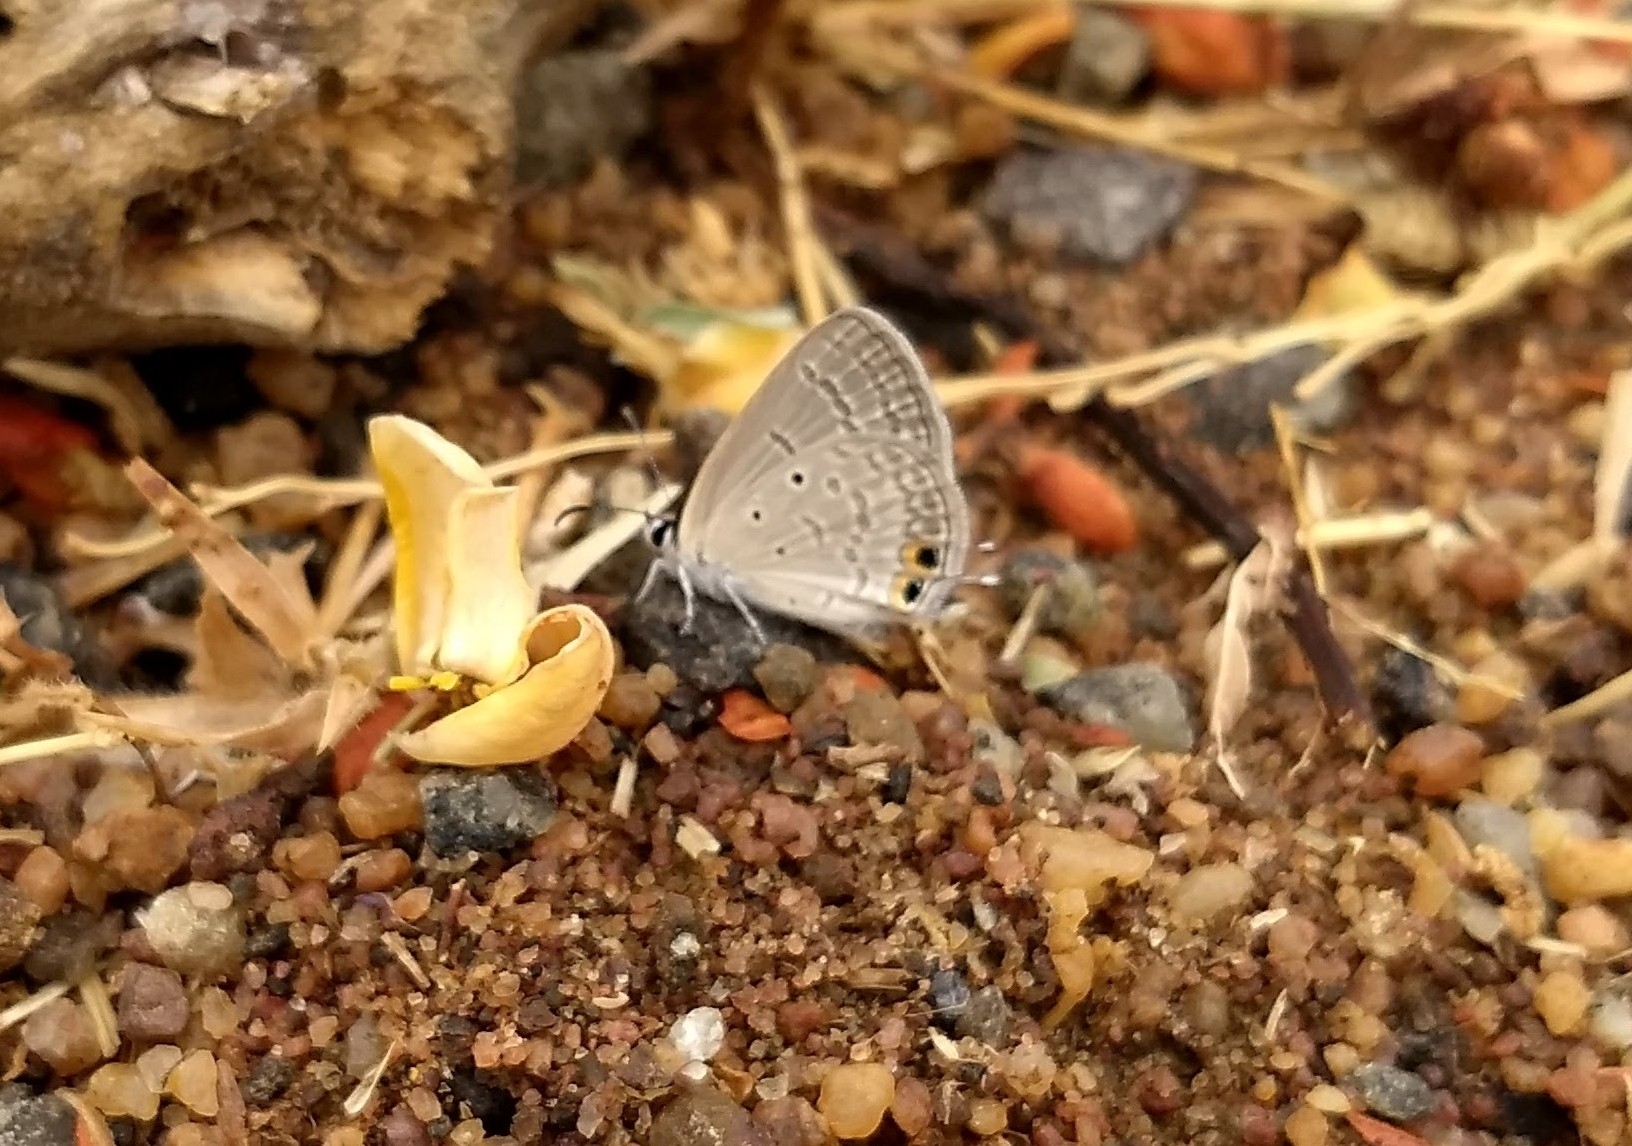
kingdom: Animalia
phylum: Arthropoda
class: Insecta
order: Lepidoptera
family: Lycaenidae
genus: Euchrysops
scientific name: Euchrysops cnejus
